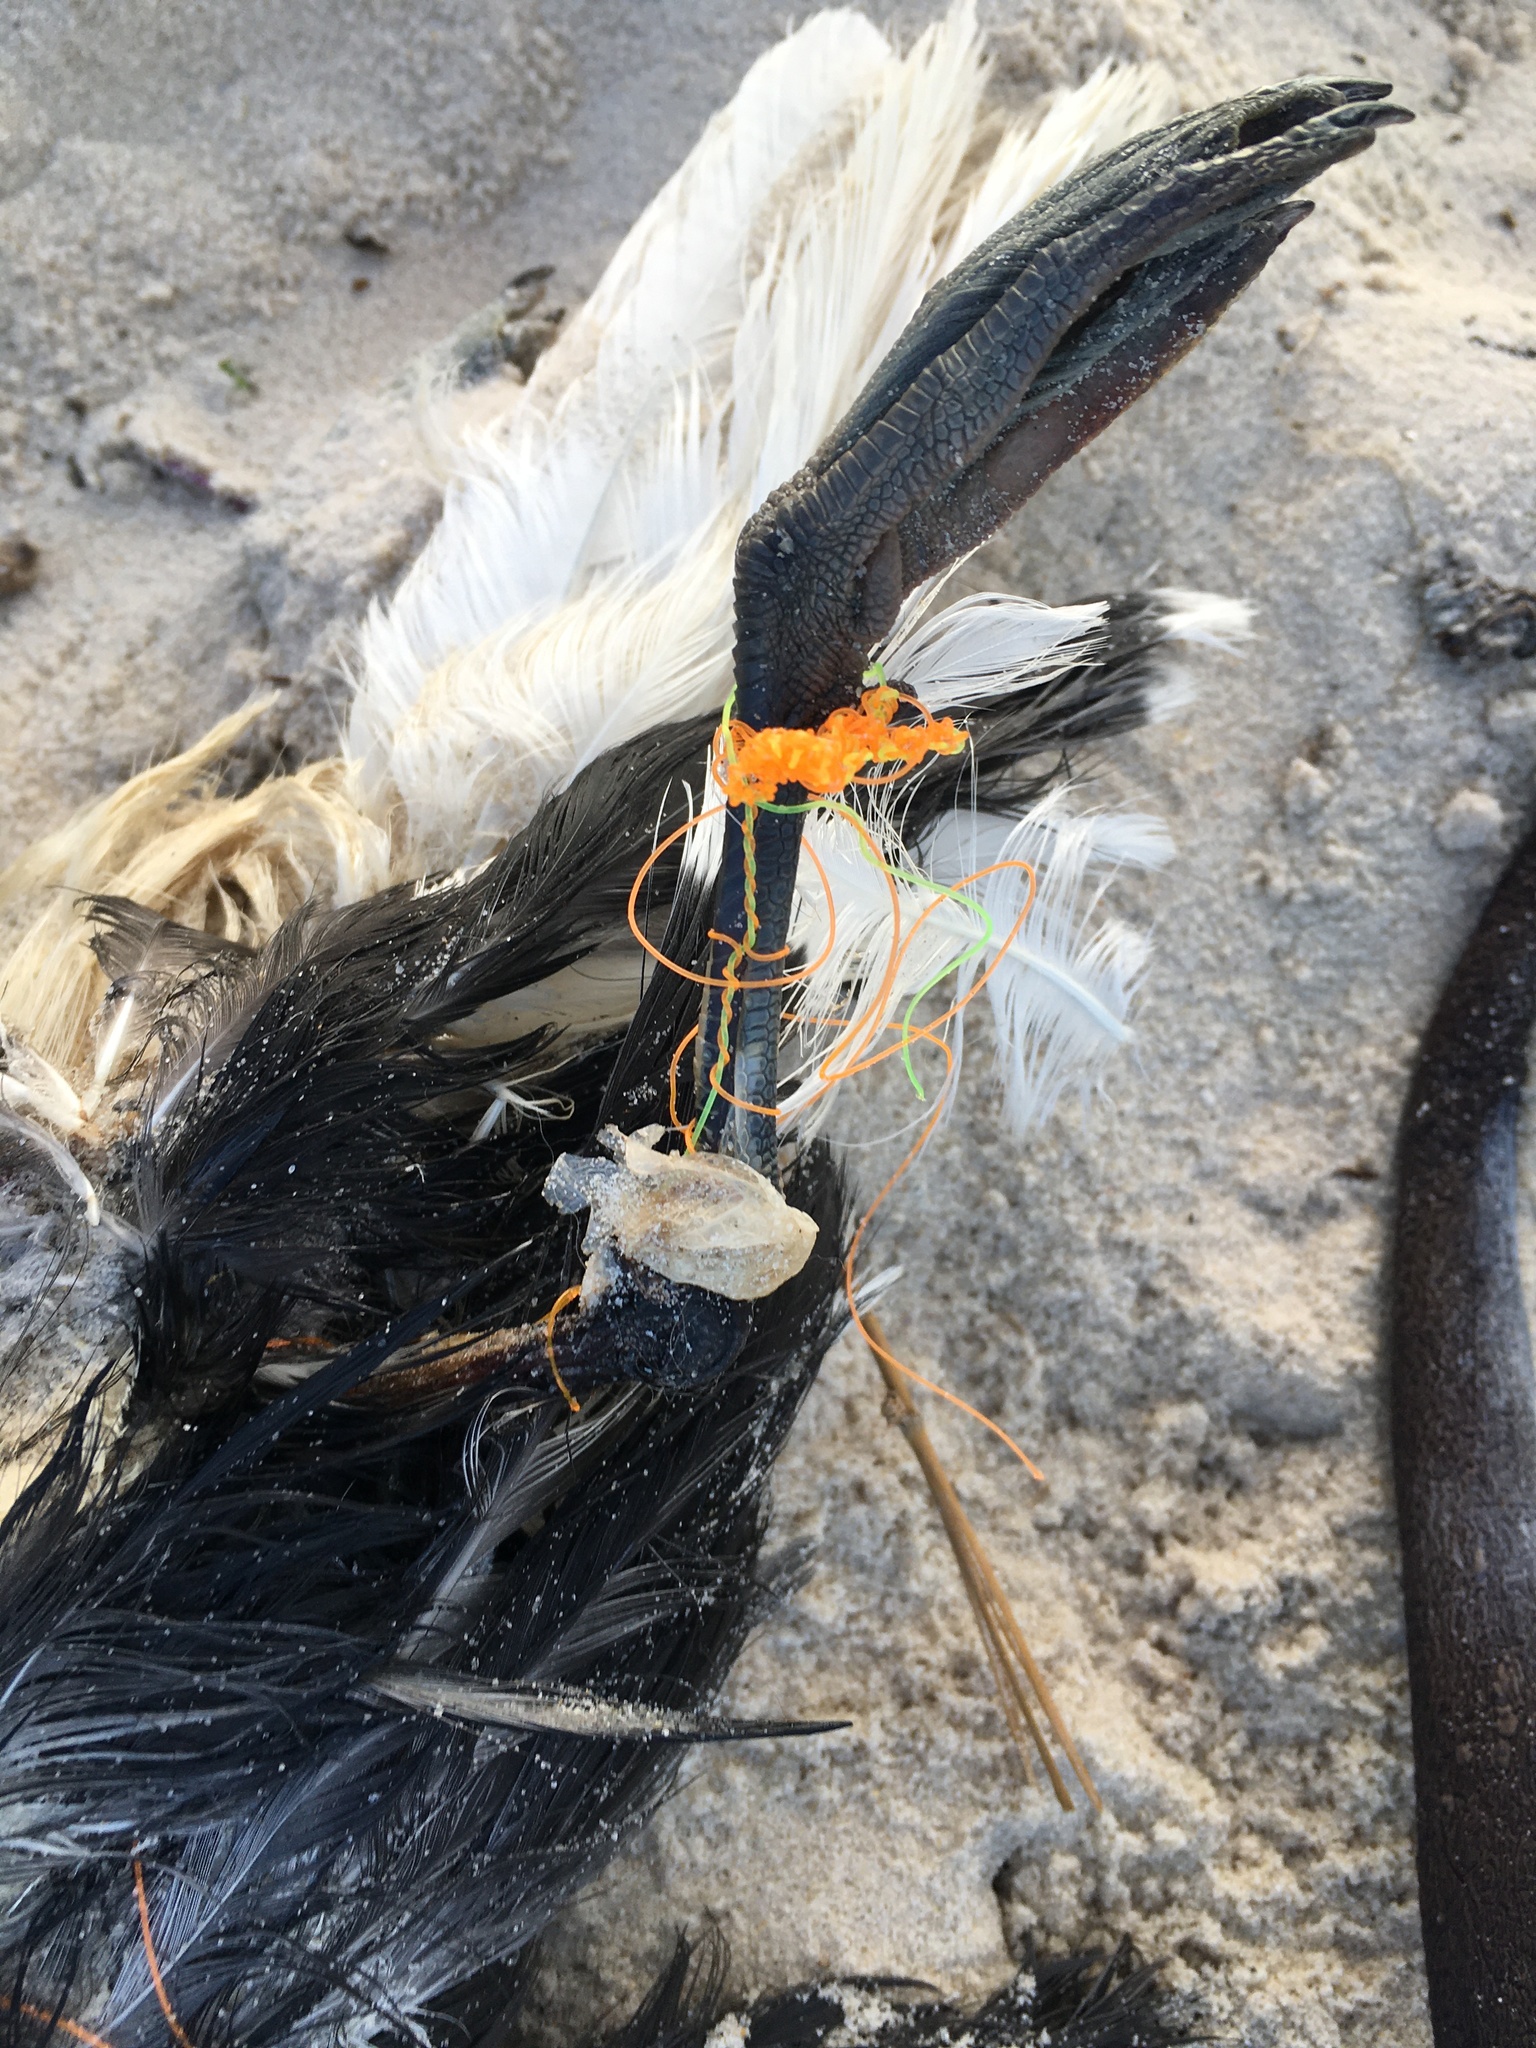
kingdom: Animalia
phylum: Chordata
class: Aves
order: Charadriiformes
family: Laridae
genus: Larus
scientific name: Larus dominicanus
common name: Kelp gull
